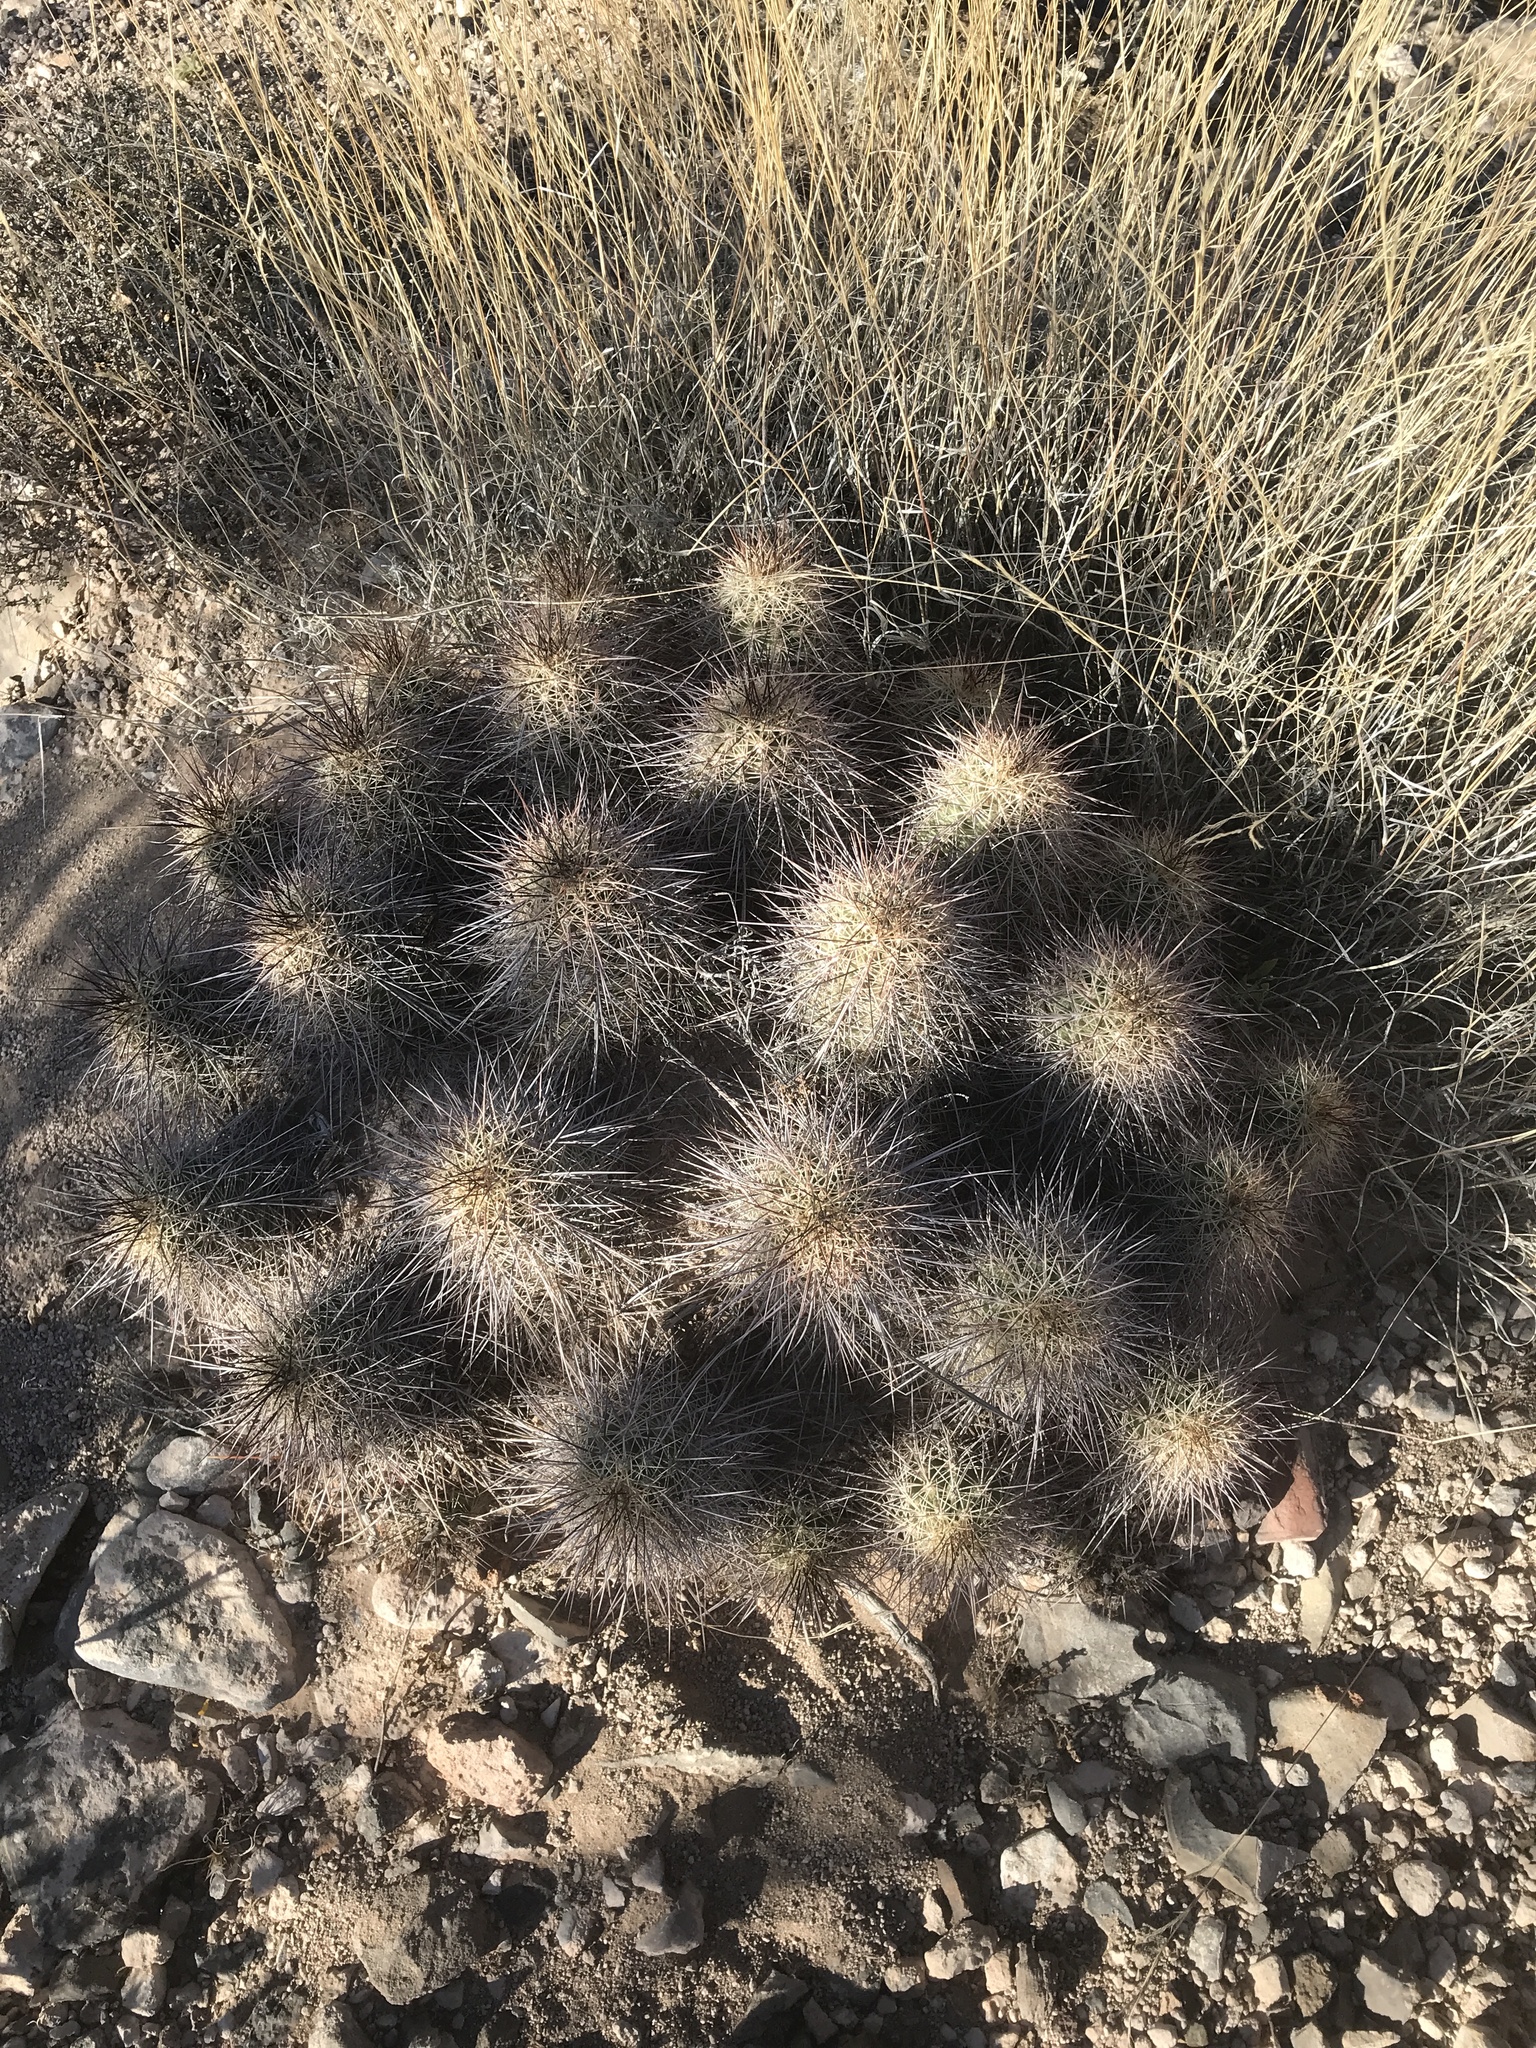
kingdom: Plantae
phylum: Tracheophyta
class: Magnoliopsida
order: Caryophyllales
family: Cactaceae
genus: Echinocereus
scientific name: Echinocereus coccineus
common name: Scarlet hedgehog cactus
